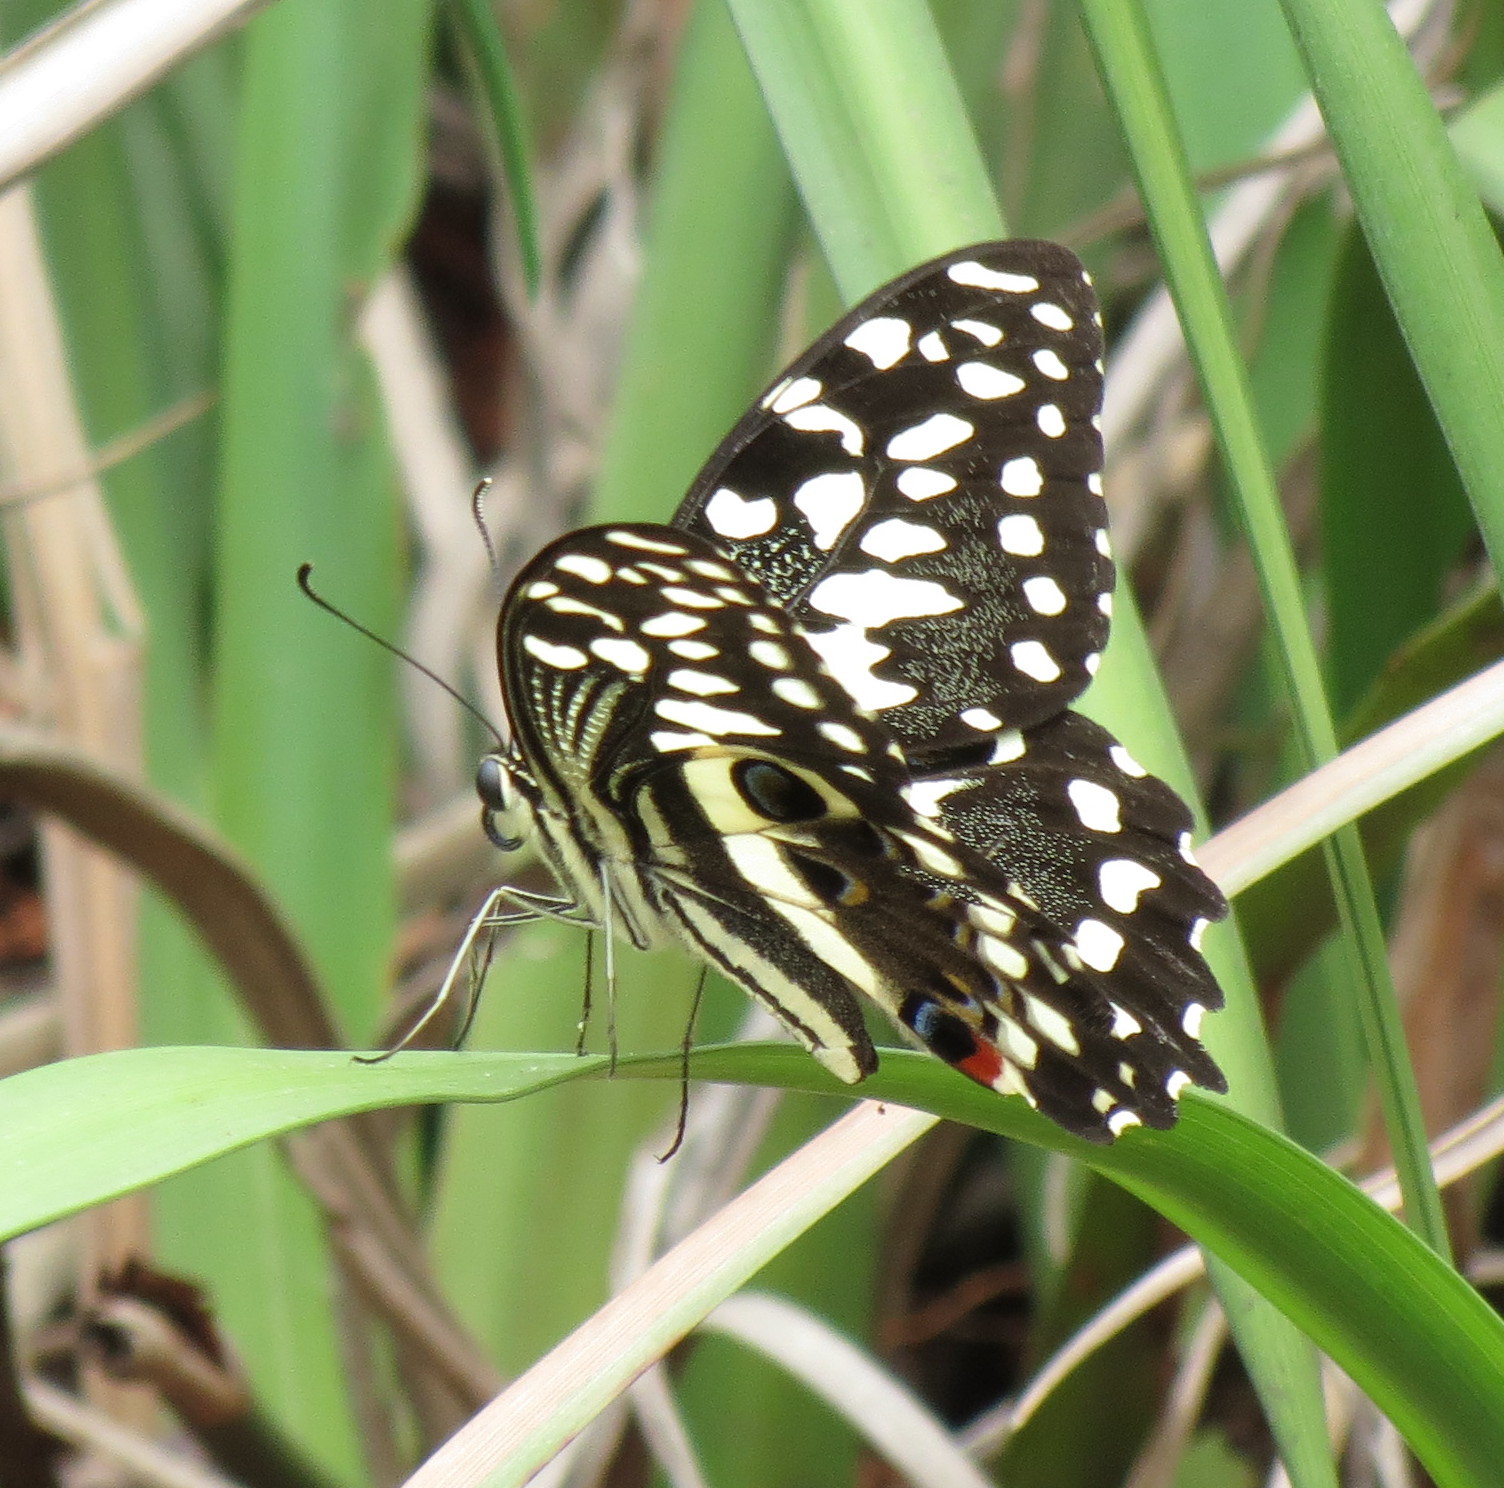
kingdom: Animalia
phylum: Arthropoda
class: Insecta
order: Lepidoptera
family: Papilionidae
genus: Papilio
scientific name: Papilio demodocus
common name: Christmas butterfly
